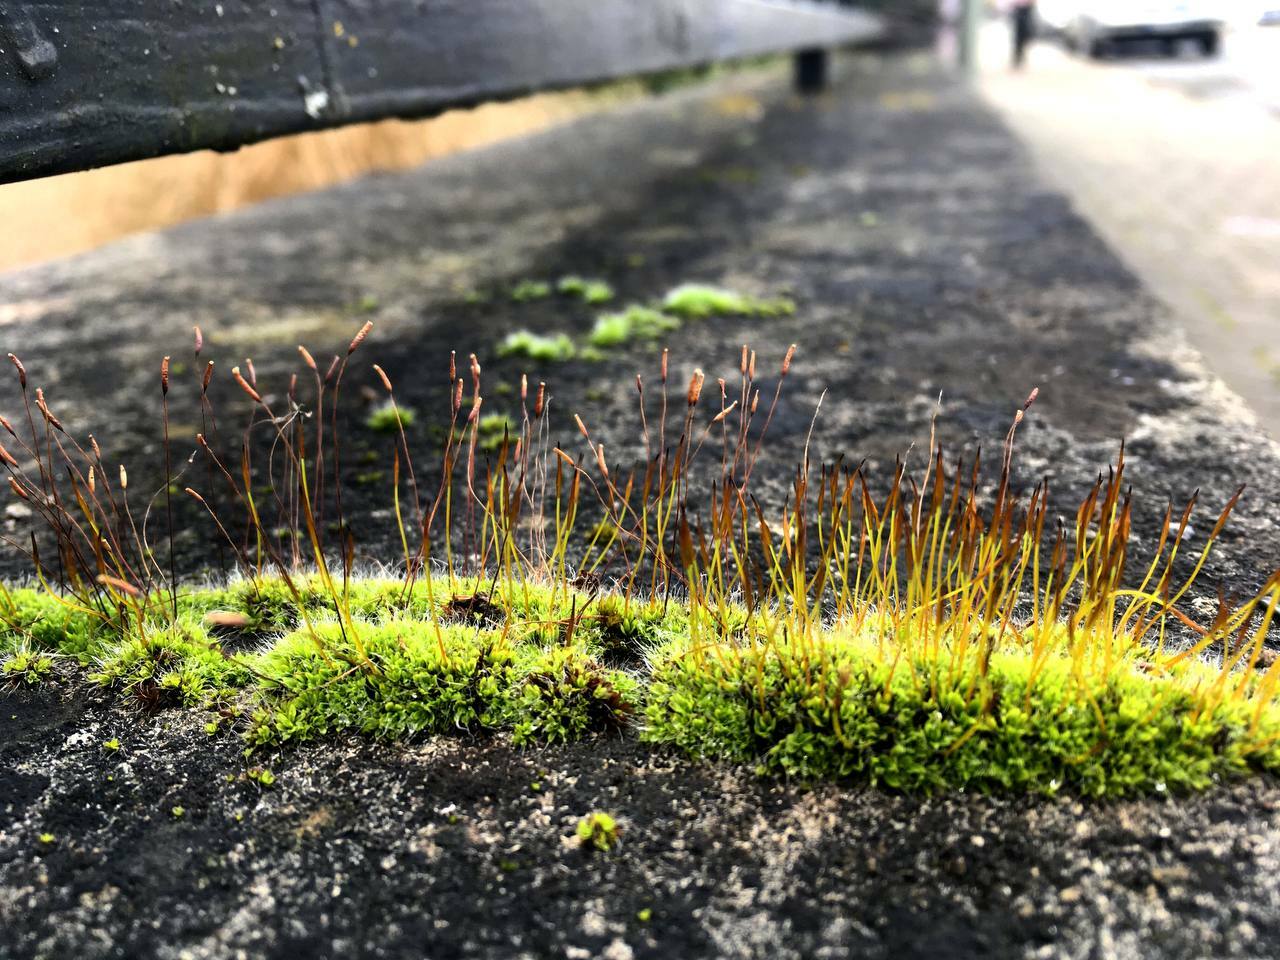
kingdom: Plantae
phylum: Bryophyta
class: Bryopsida
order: Pottiales
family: Pottiaceae
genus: Tortula
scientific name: Tortula muralis
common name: Wall screw-moss
